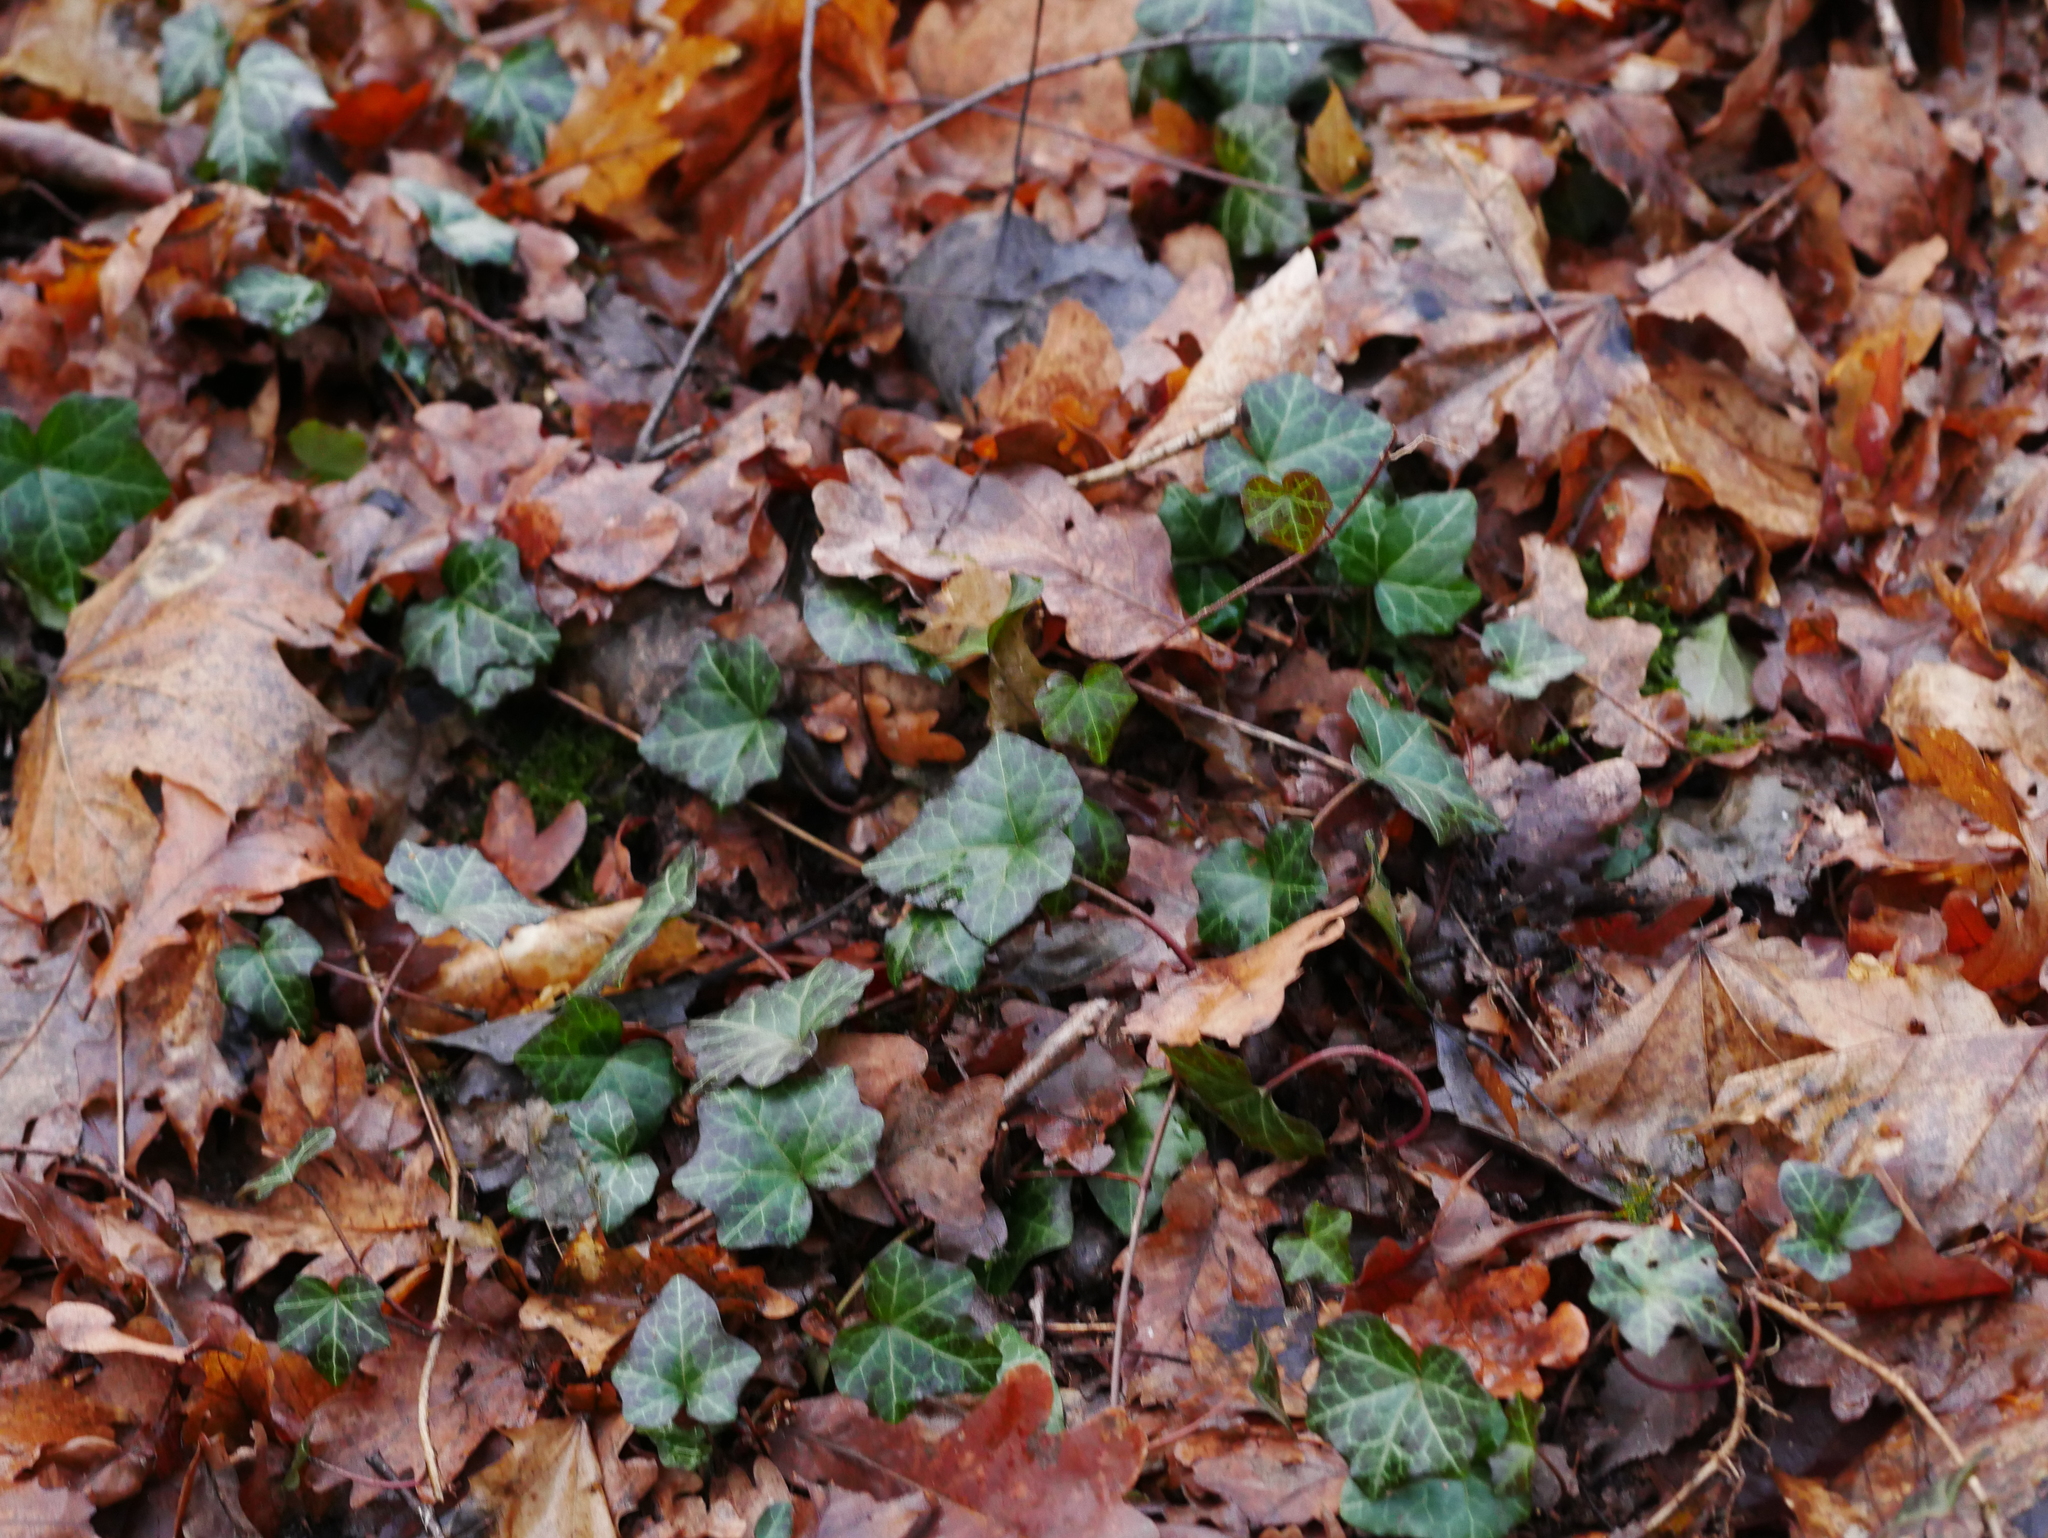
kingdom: Plantae
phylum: Tracheophyta
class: Magnoliopsida
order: Apiales
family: Araliaceae
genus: Hedera
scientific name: Hedera helix
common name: Ivy
